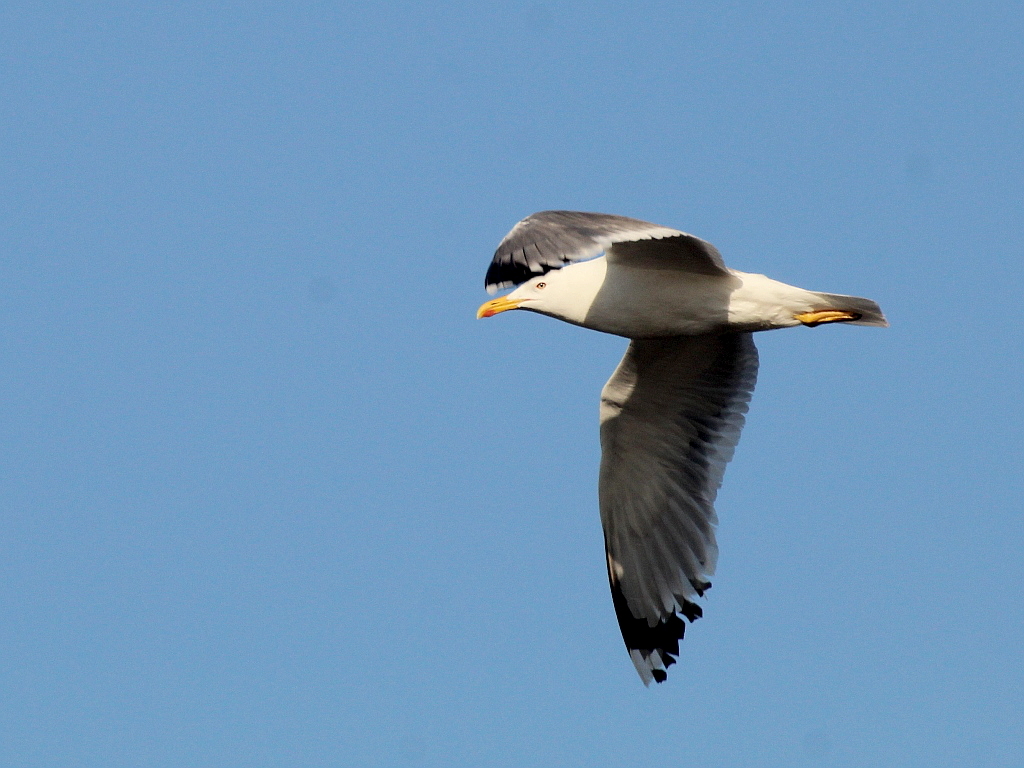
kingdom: Animalia
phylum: Chordata
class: Aves
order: Charadriiformes
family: Laridae
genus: Larus
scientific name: Larus fuscus
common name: Lesser black-backed gull
